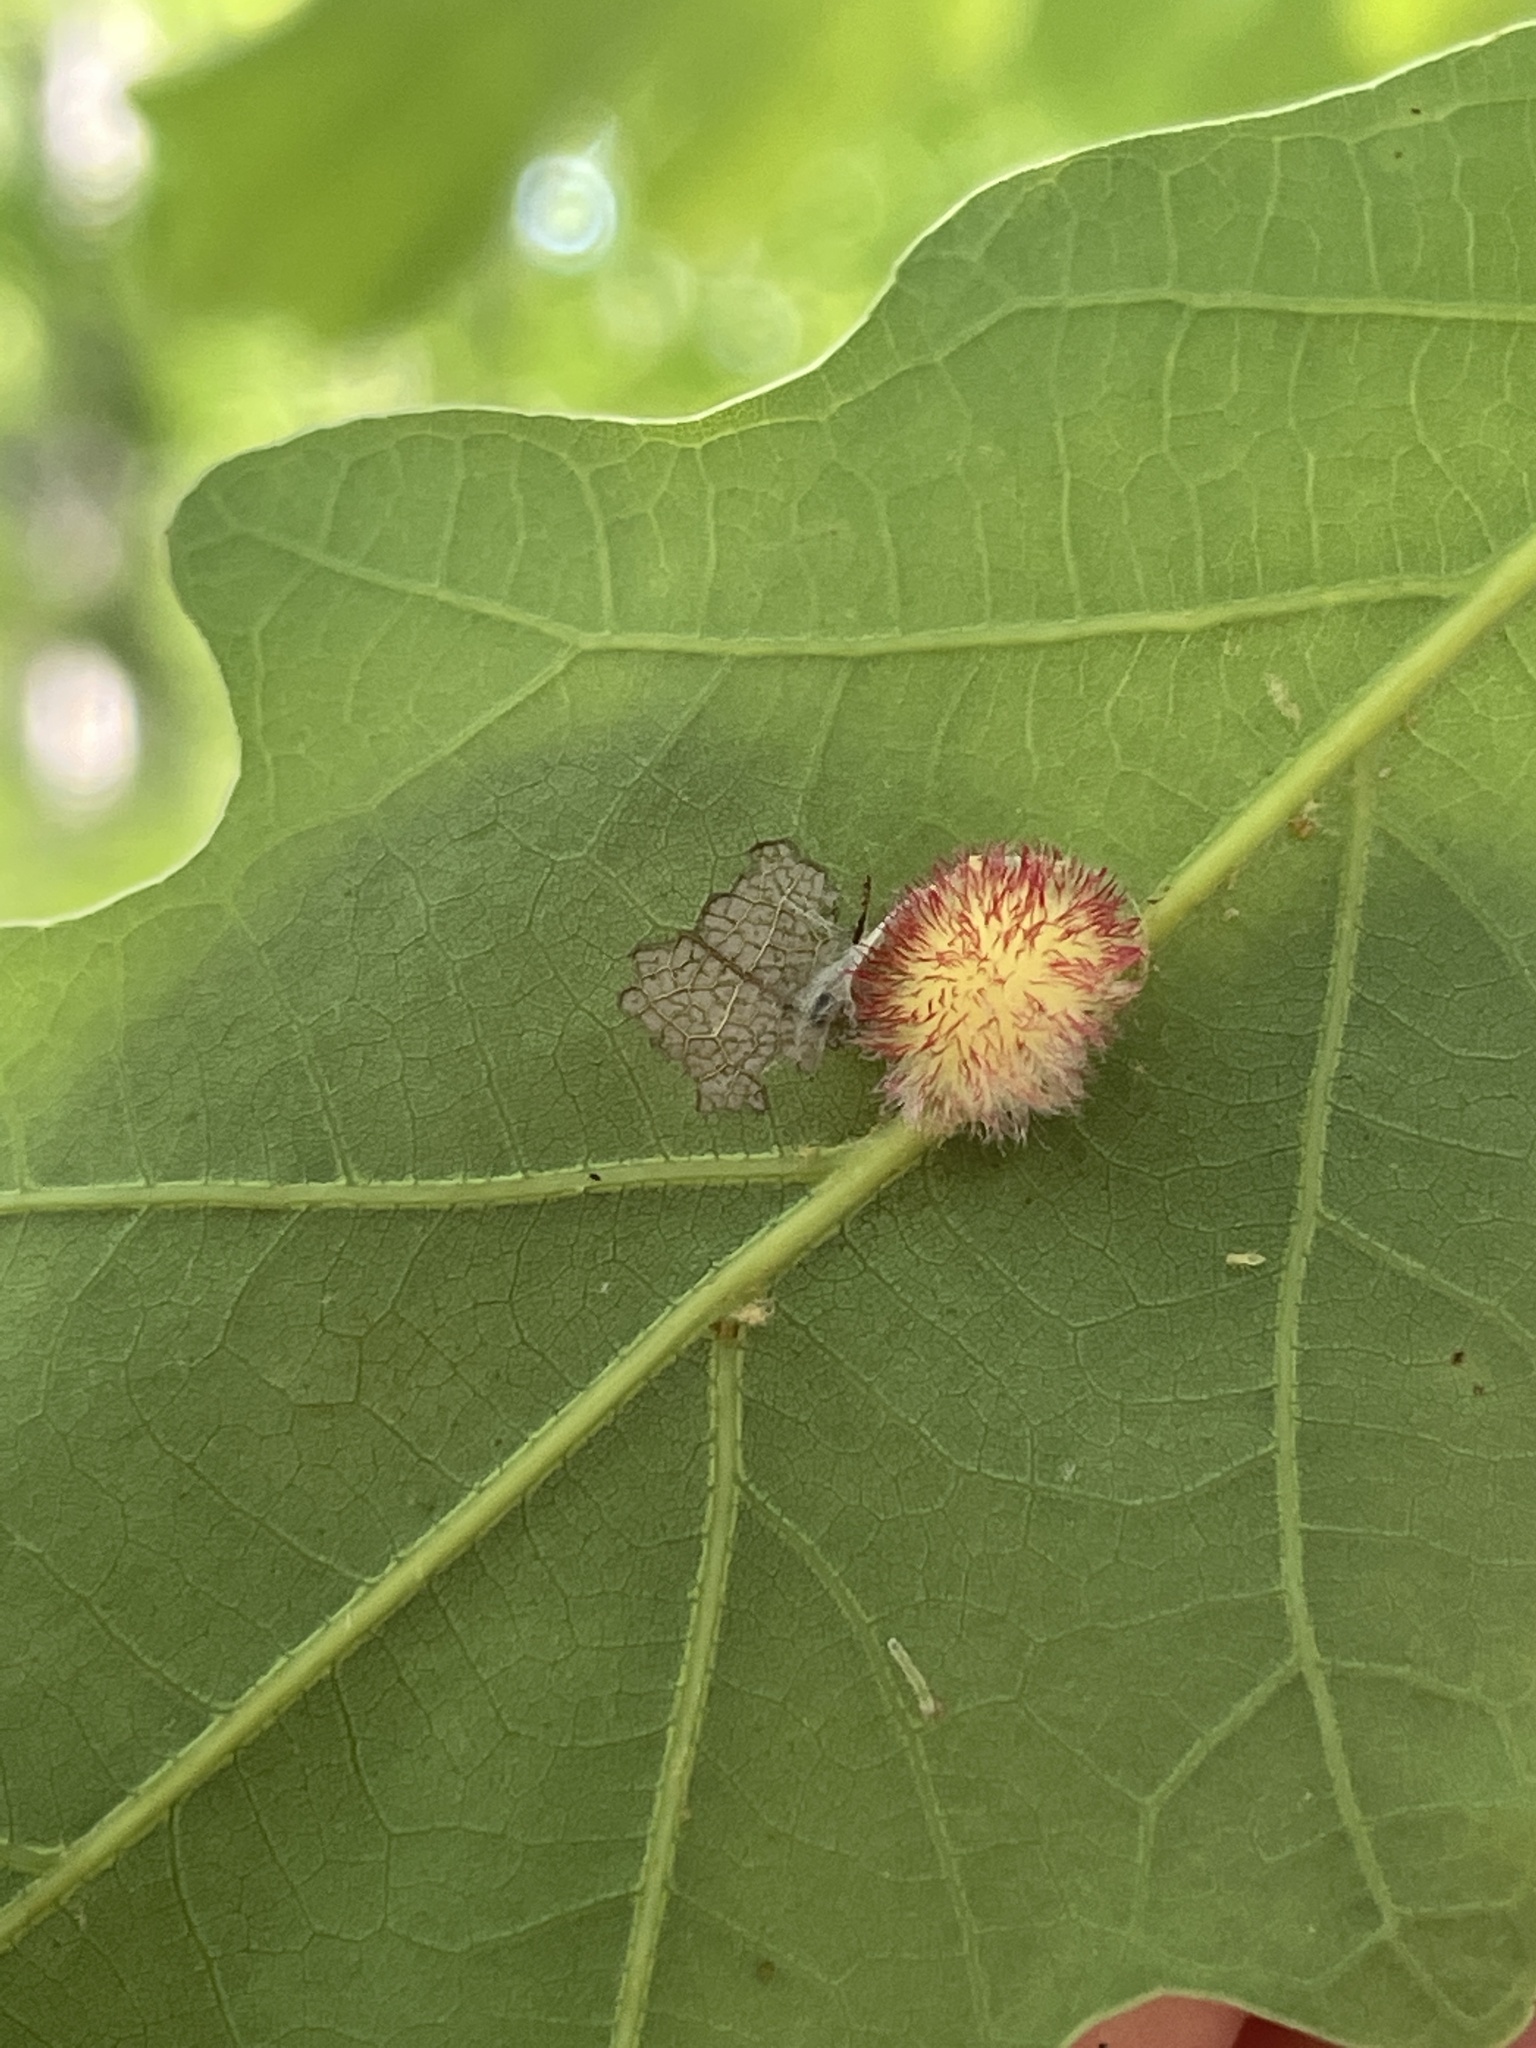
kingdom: Animalia
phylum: Arthropoda
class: Insecta
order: Hymenoptera
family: Cynipidae
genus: Acraspis
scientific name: Acraspis erinacei
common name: Hedgehog gall wasp
